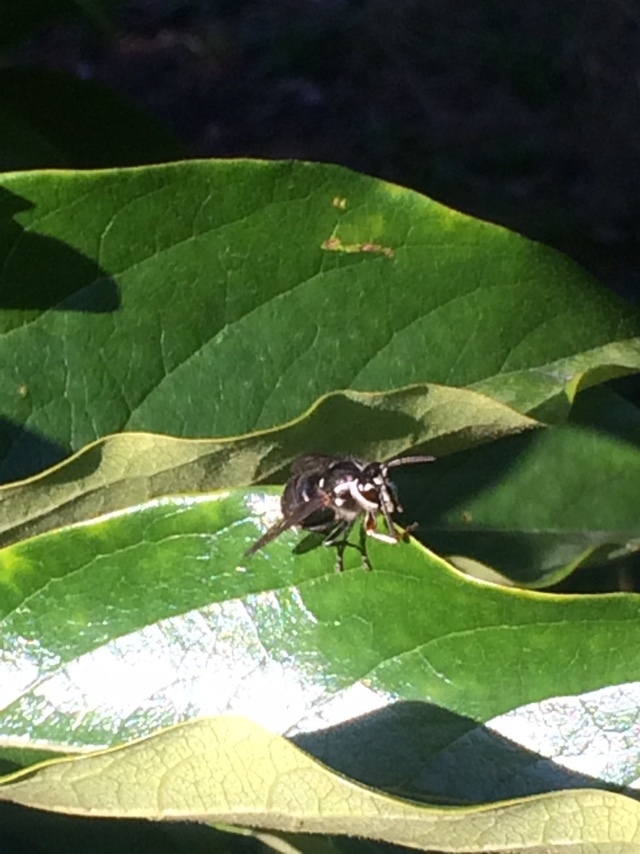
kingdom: Animalia
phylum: Arthropoda
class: Insecta
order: Hymenoptera
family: Vespidae
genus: Dolichovespula
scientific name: Dolichovespula maculata
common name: Bald-faced hornet
